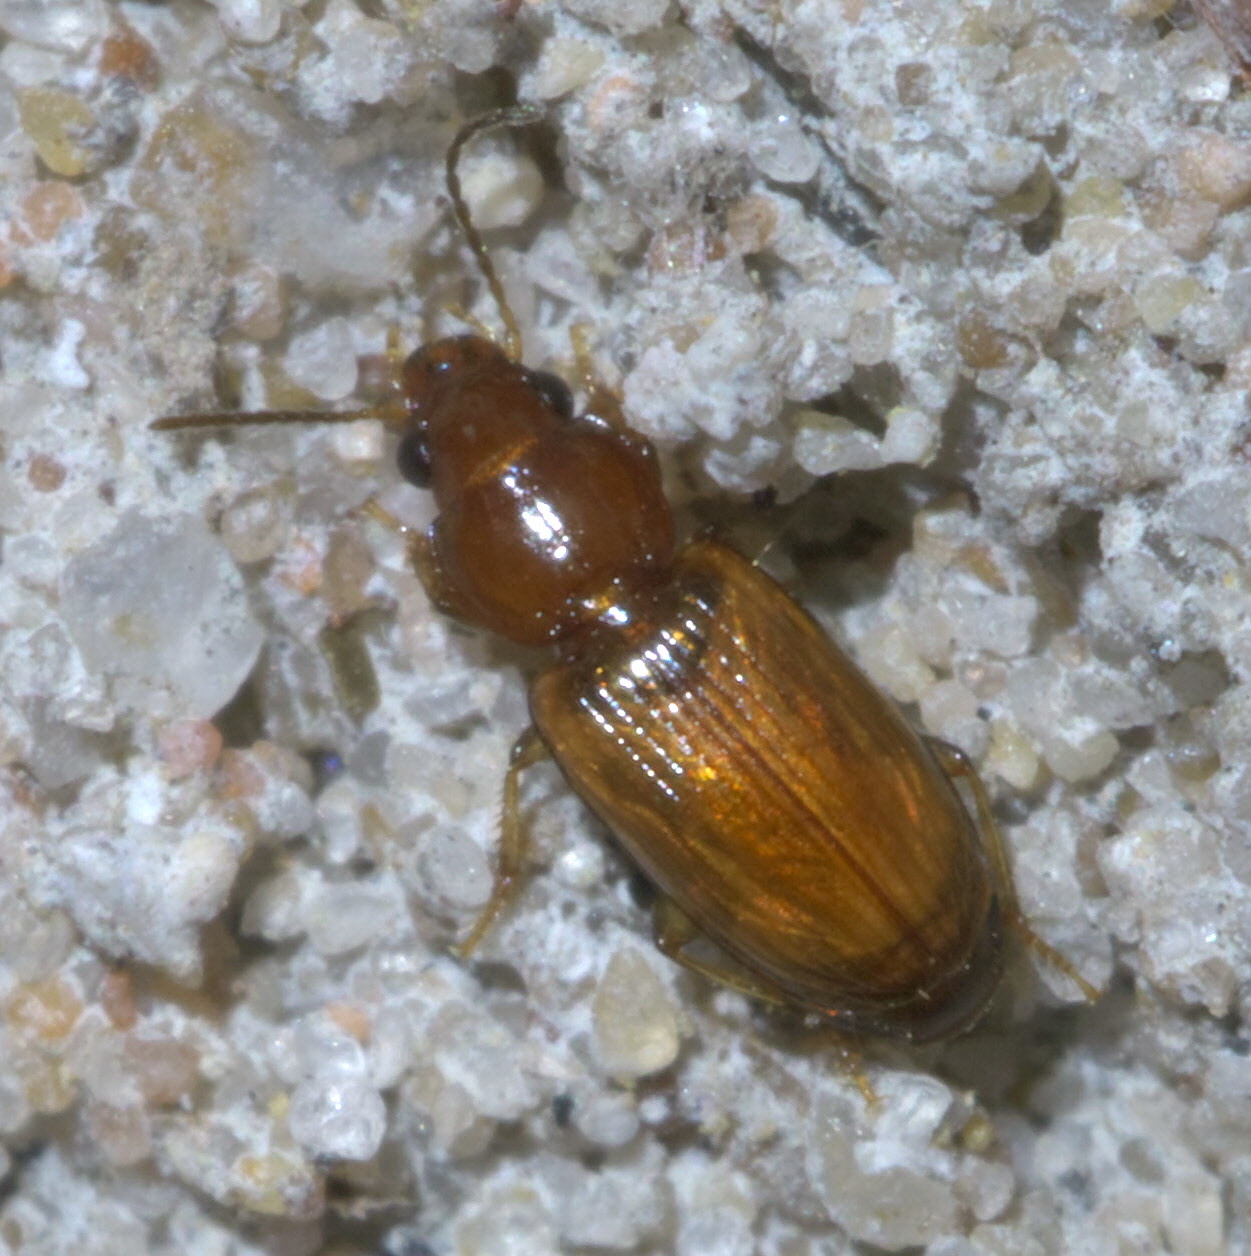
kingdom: Animalia
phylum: Arthropoda
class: Insecta
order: Coleoptera
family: Carabidae
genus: Acupalpus
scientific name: Acupalpus testaceus
